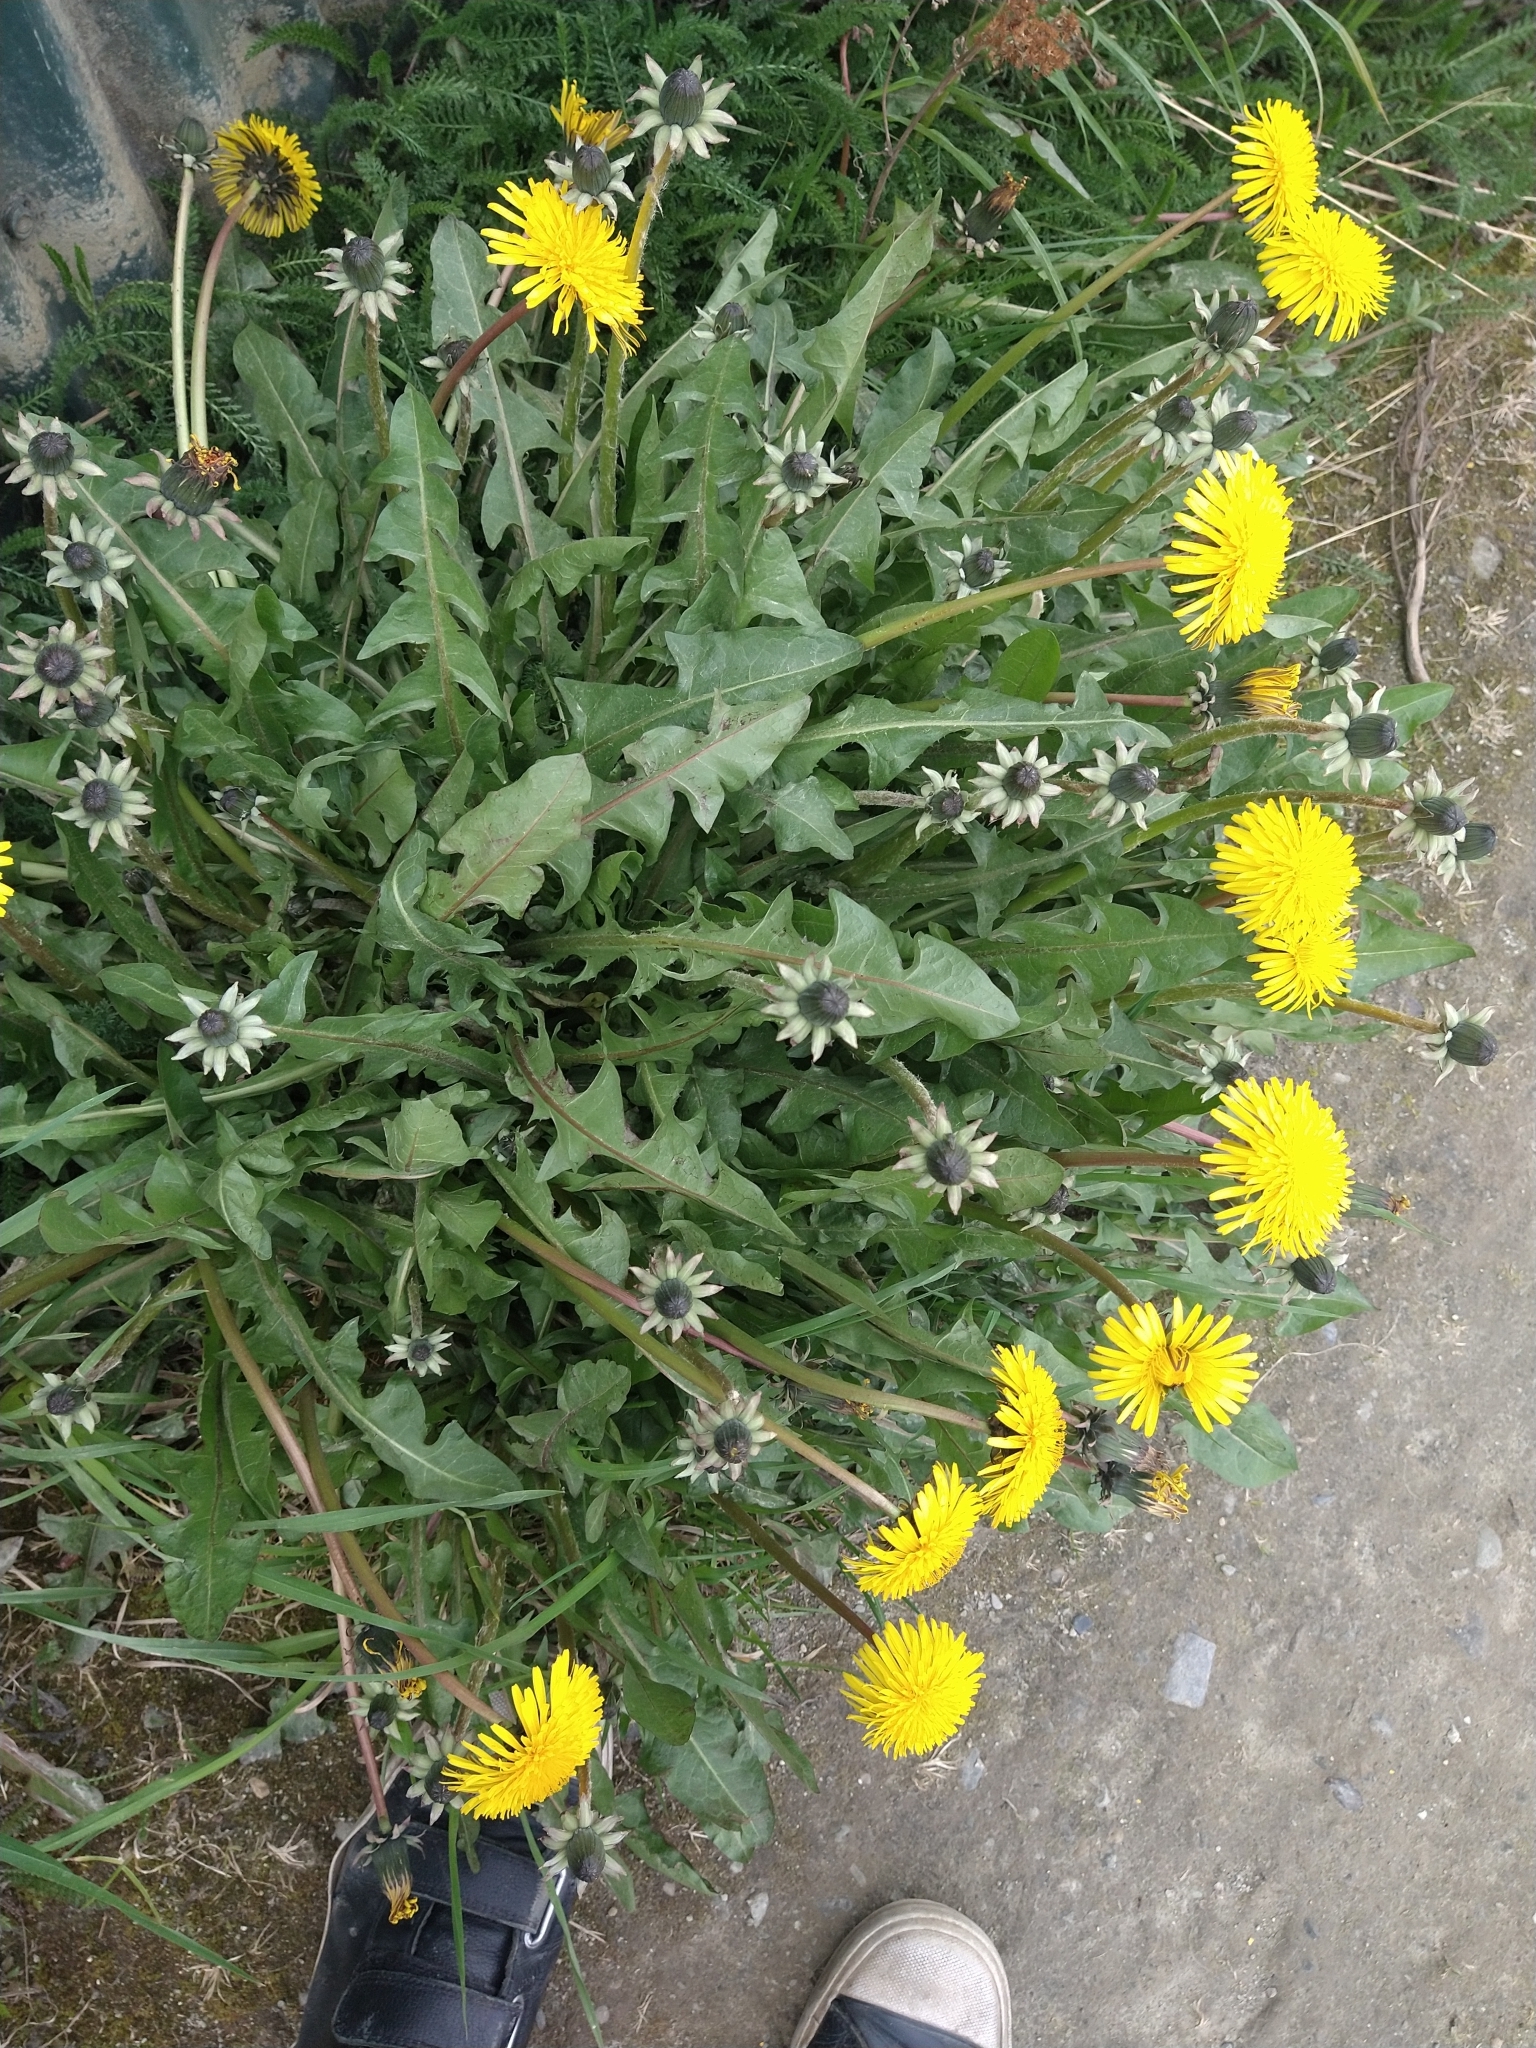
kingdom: Plantae
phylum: Tracheophyta
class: Magnoliopsida
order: Asterales
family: Asteraceae
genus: Taraxacum
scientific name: Taraxacum officinale
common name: Common dandelion
